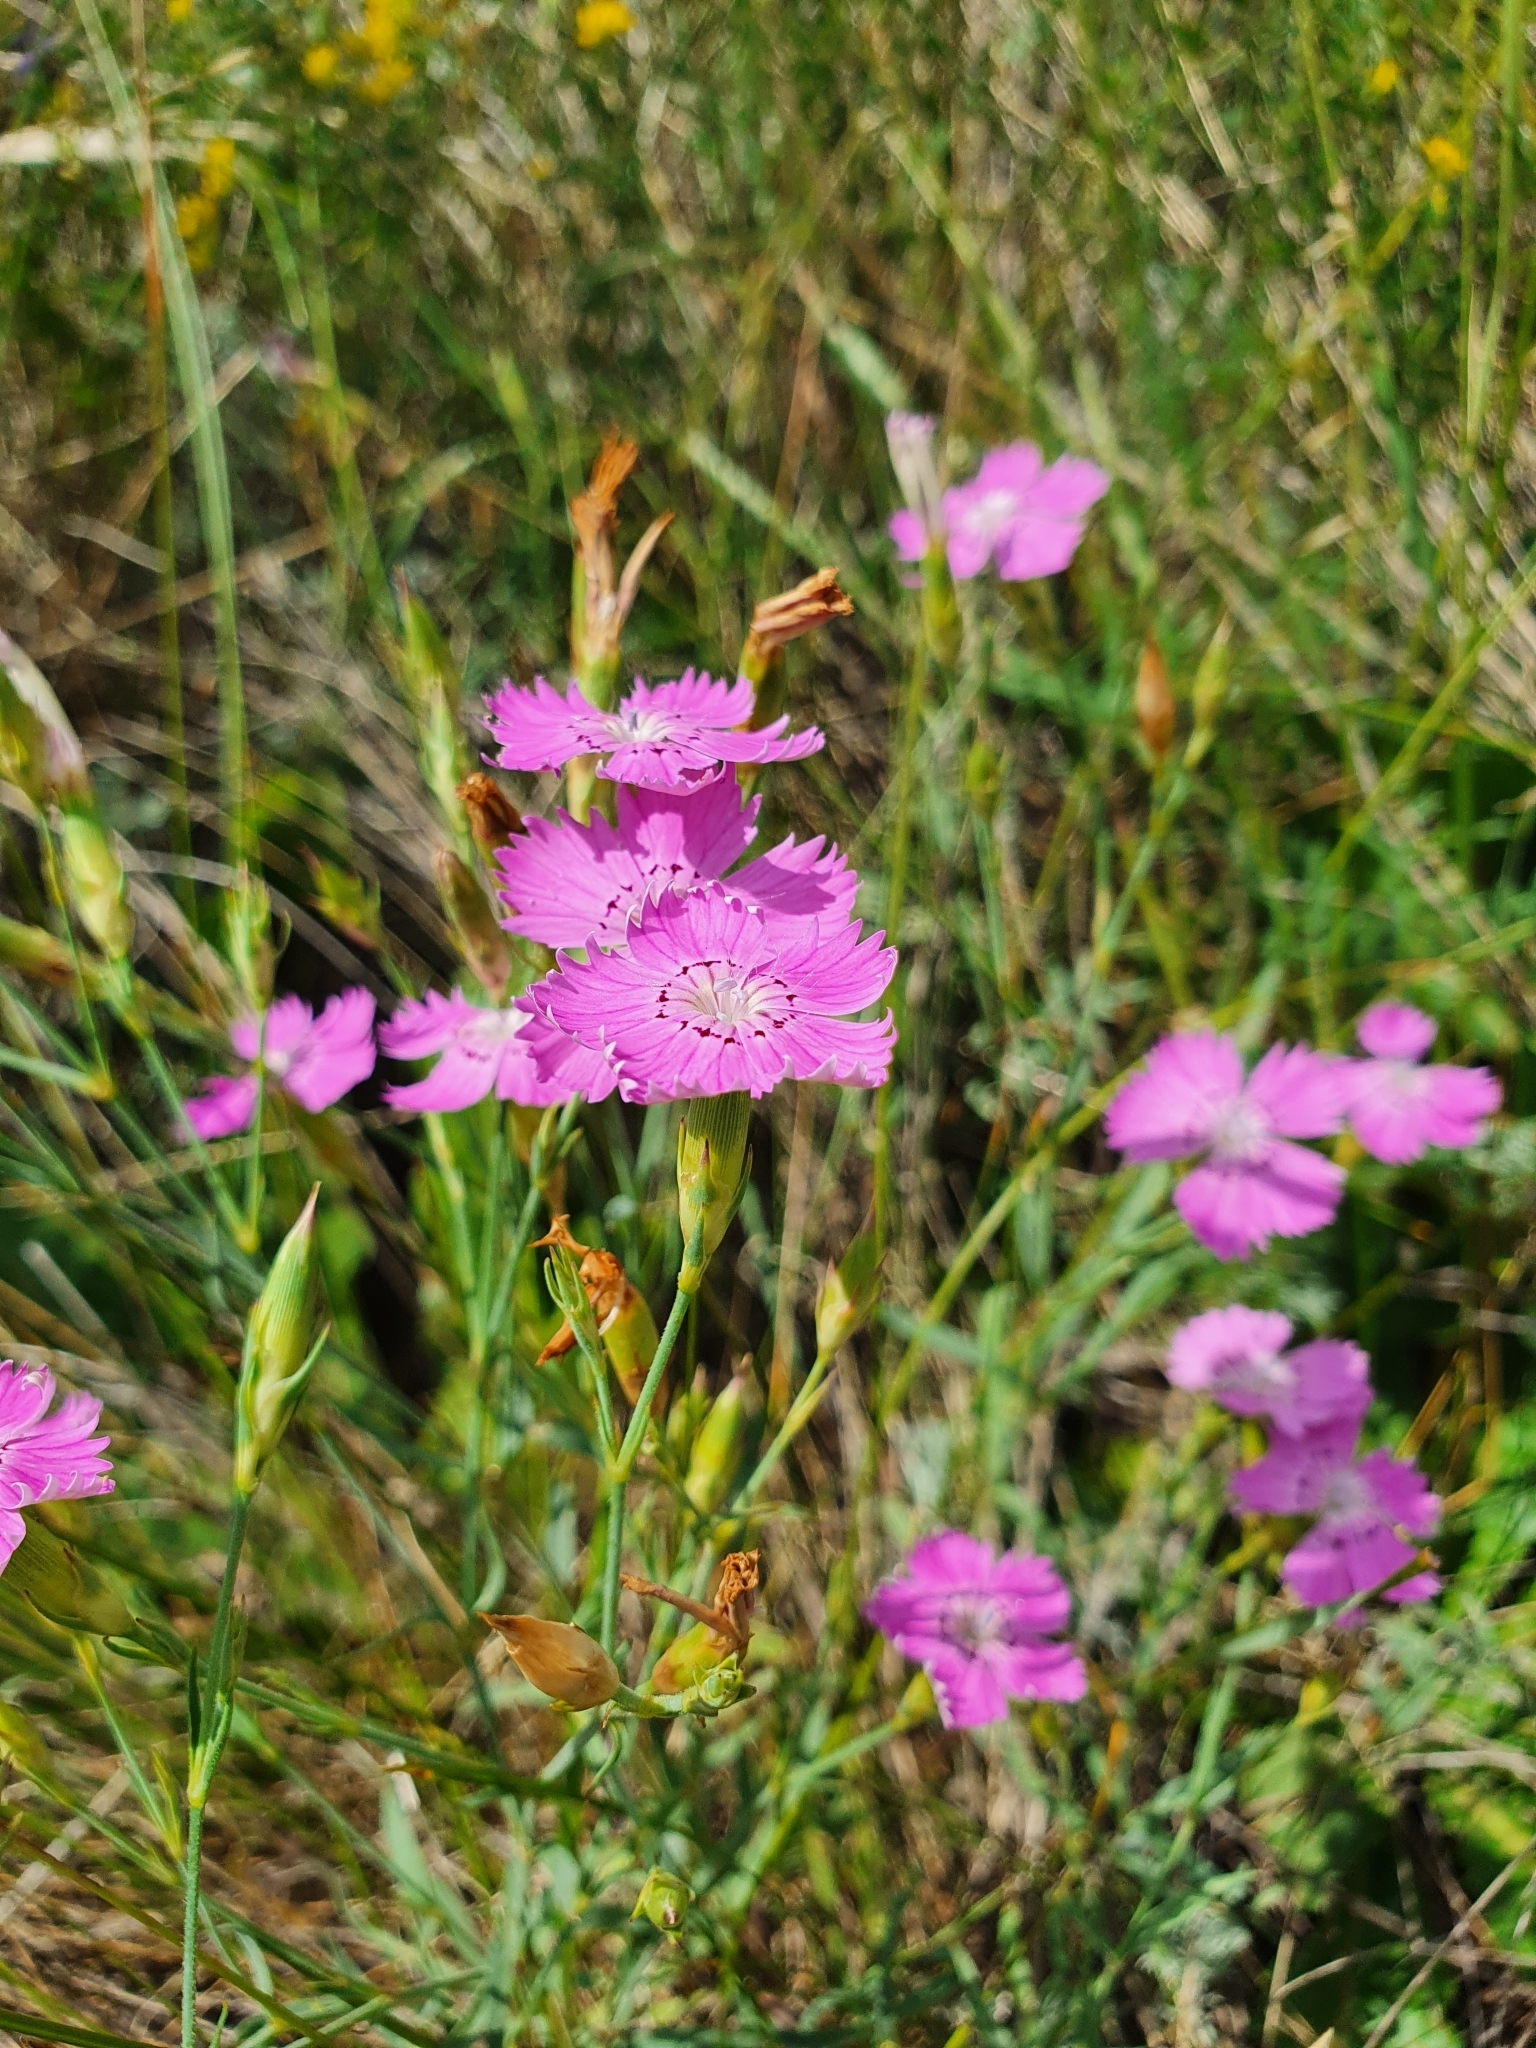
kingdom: Plantae
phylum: Tracheophyta
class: Magnoliopsida
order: Caryophyllales
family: Caryophyllaceae
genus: Dianthus
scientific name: Dianthus chinensis
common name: Rainbow pink
